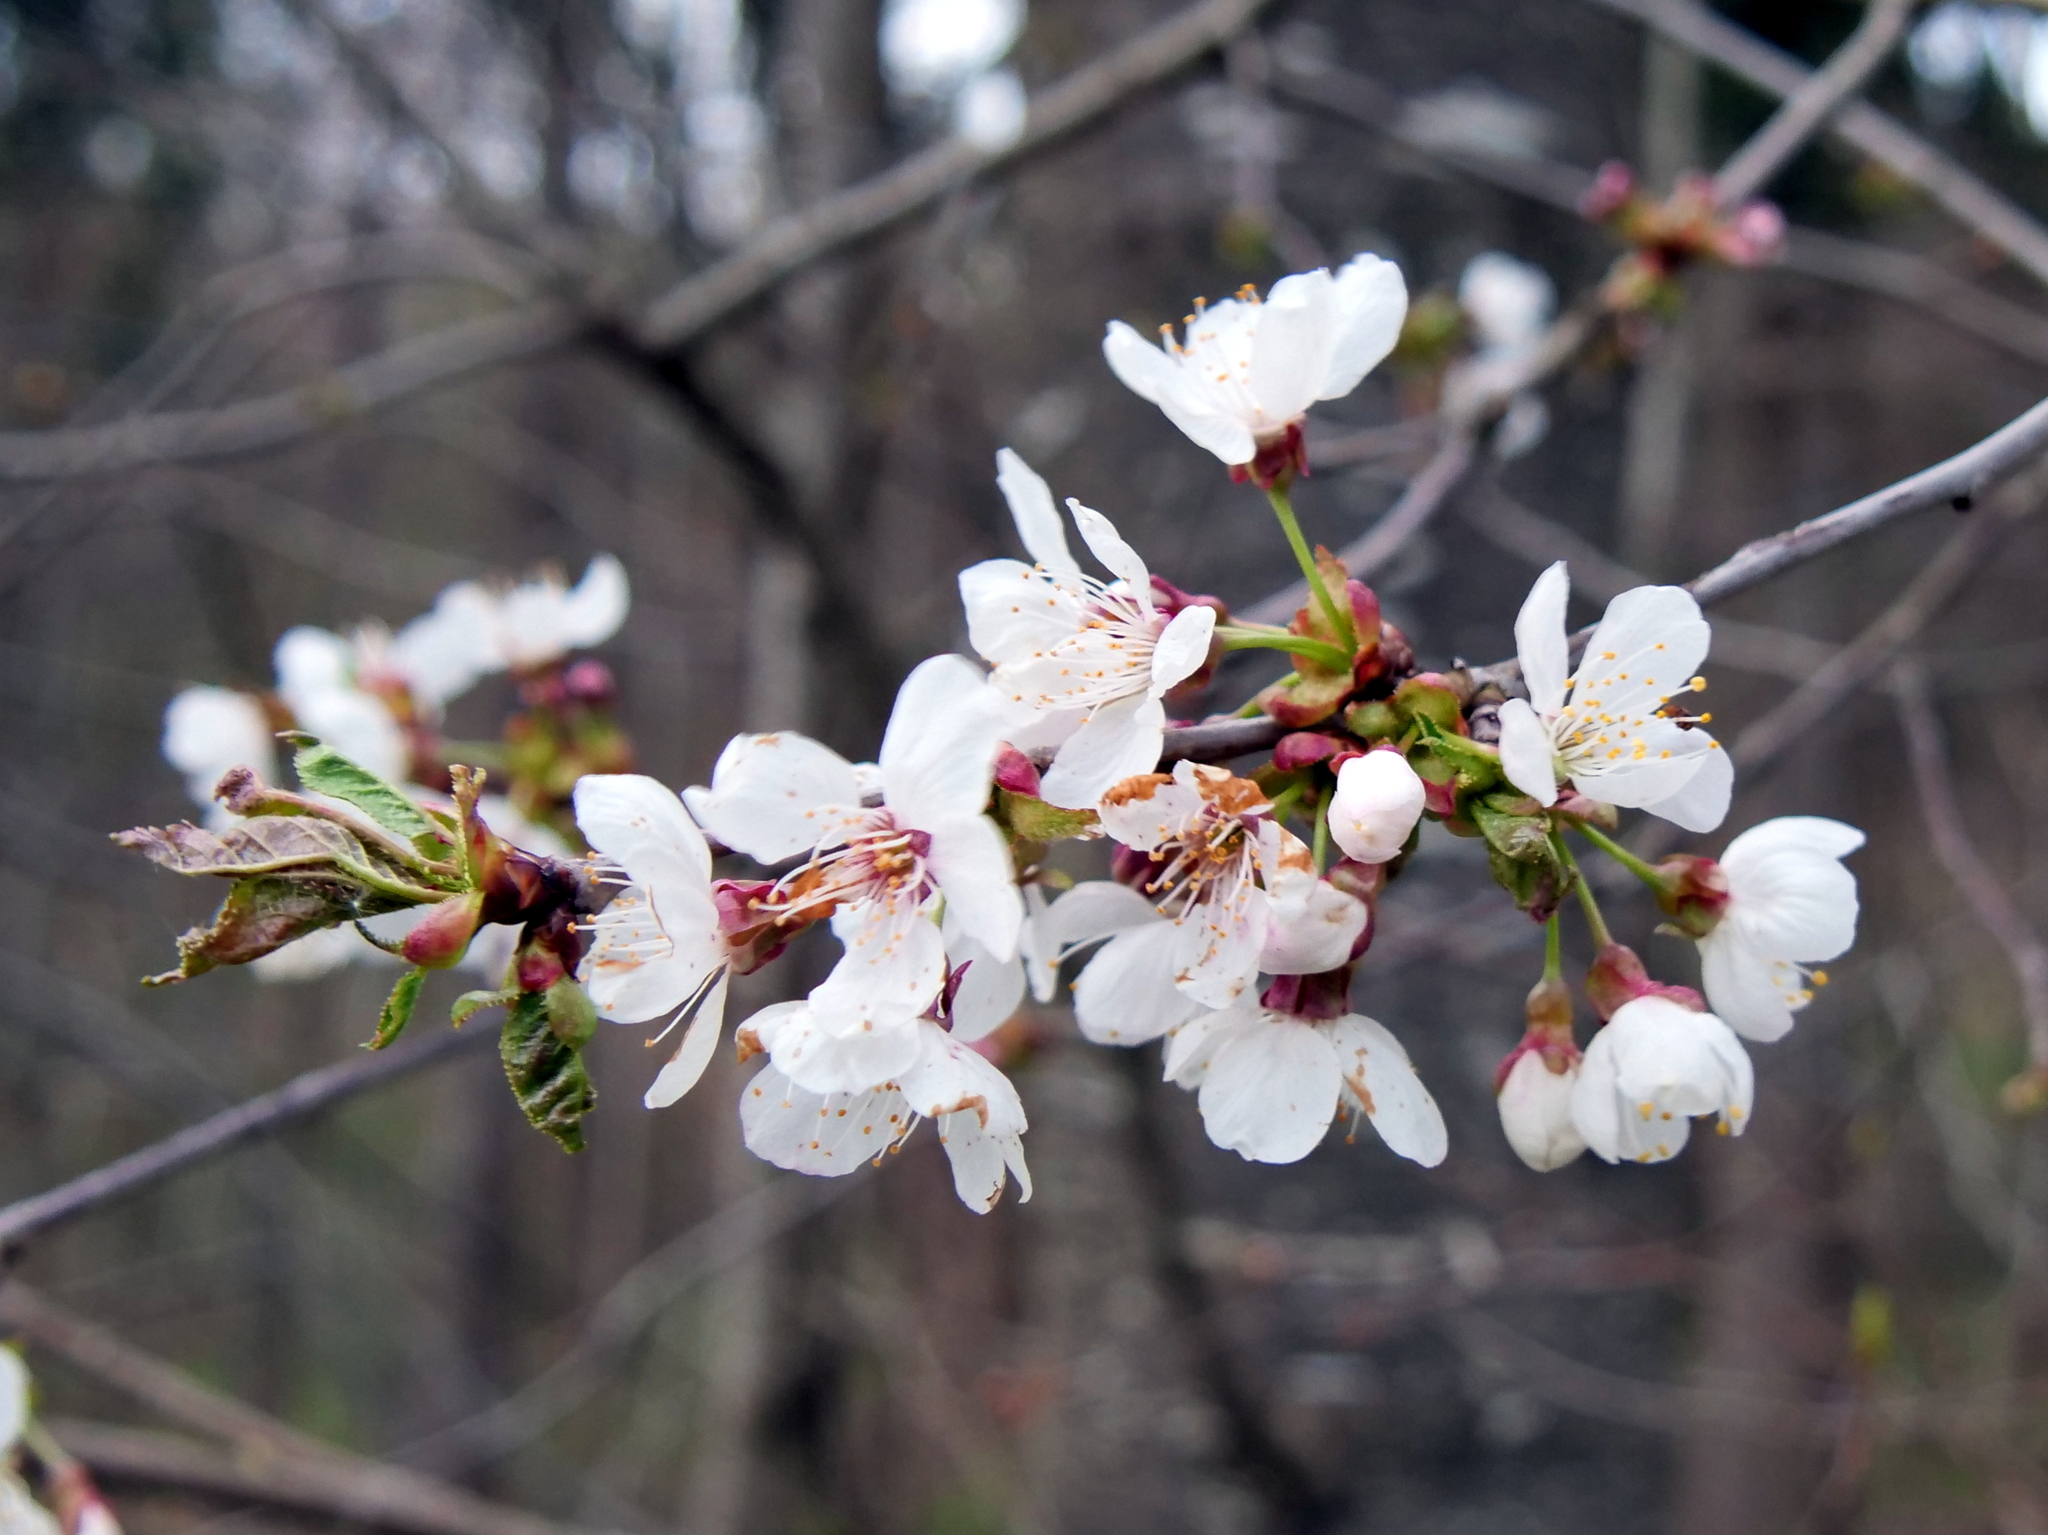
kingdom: Plantae
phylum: Tracheophyta
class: Magnoliopsida
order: Rosales
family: Rosaceae
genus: Prunus
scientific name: Prunus avium
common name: Sweet cherry
